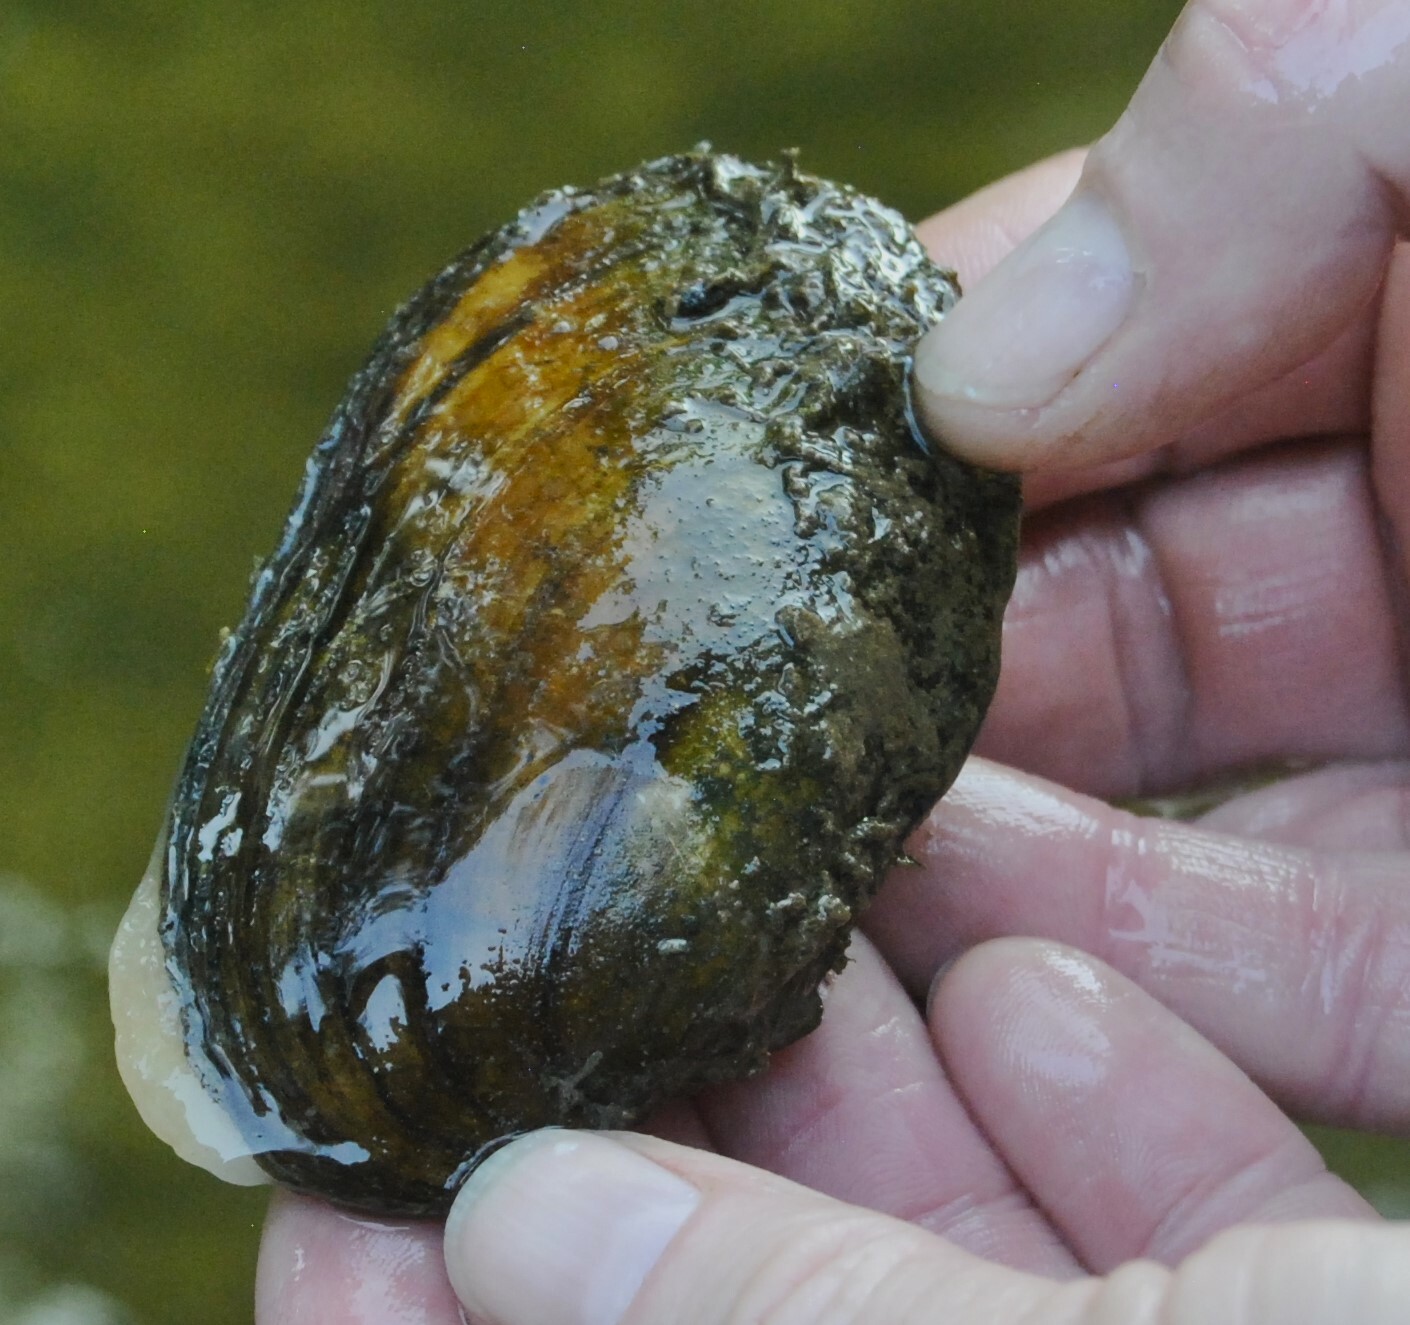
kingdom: Animalia
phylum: Mollusca
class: Bivalvia
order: Unionida
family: Unionidae
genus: Lampsilis
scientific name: Lampsilis siliquoidea
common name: Fatmucket
